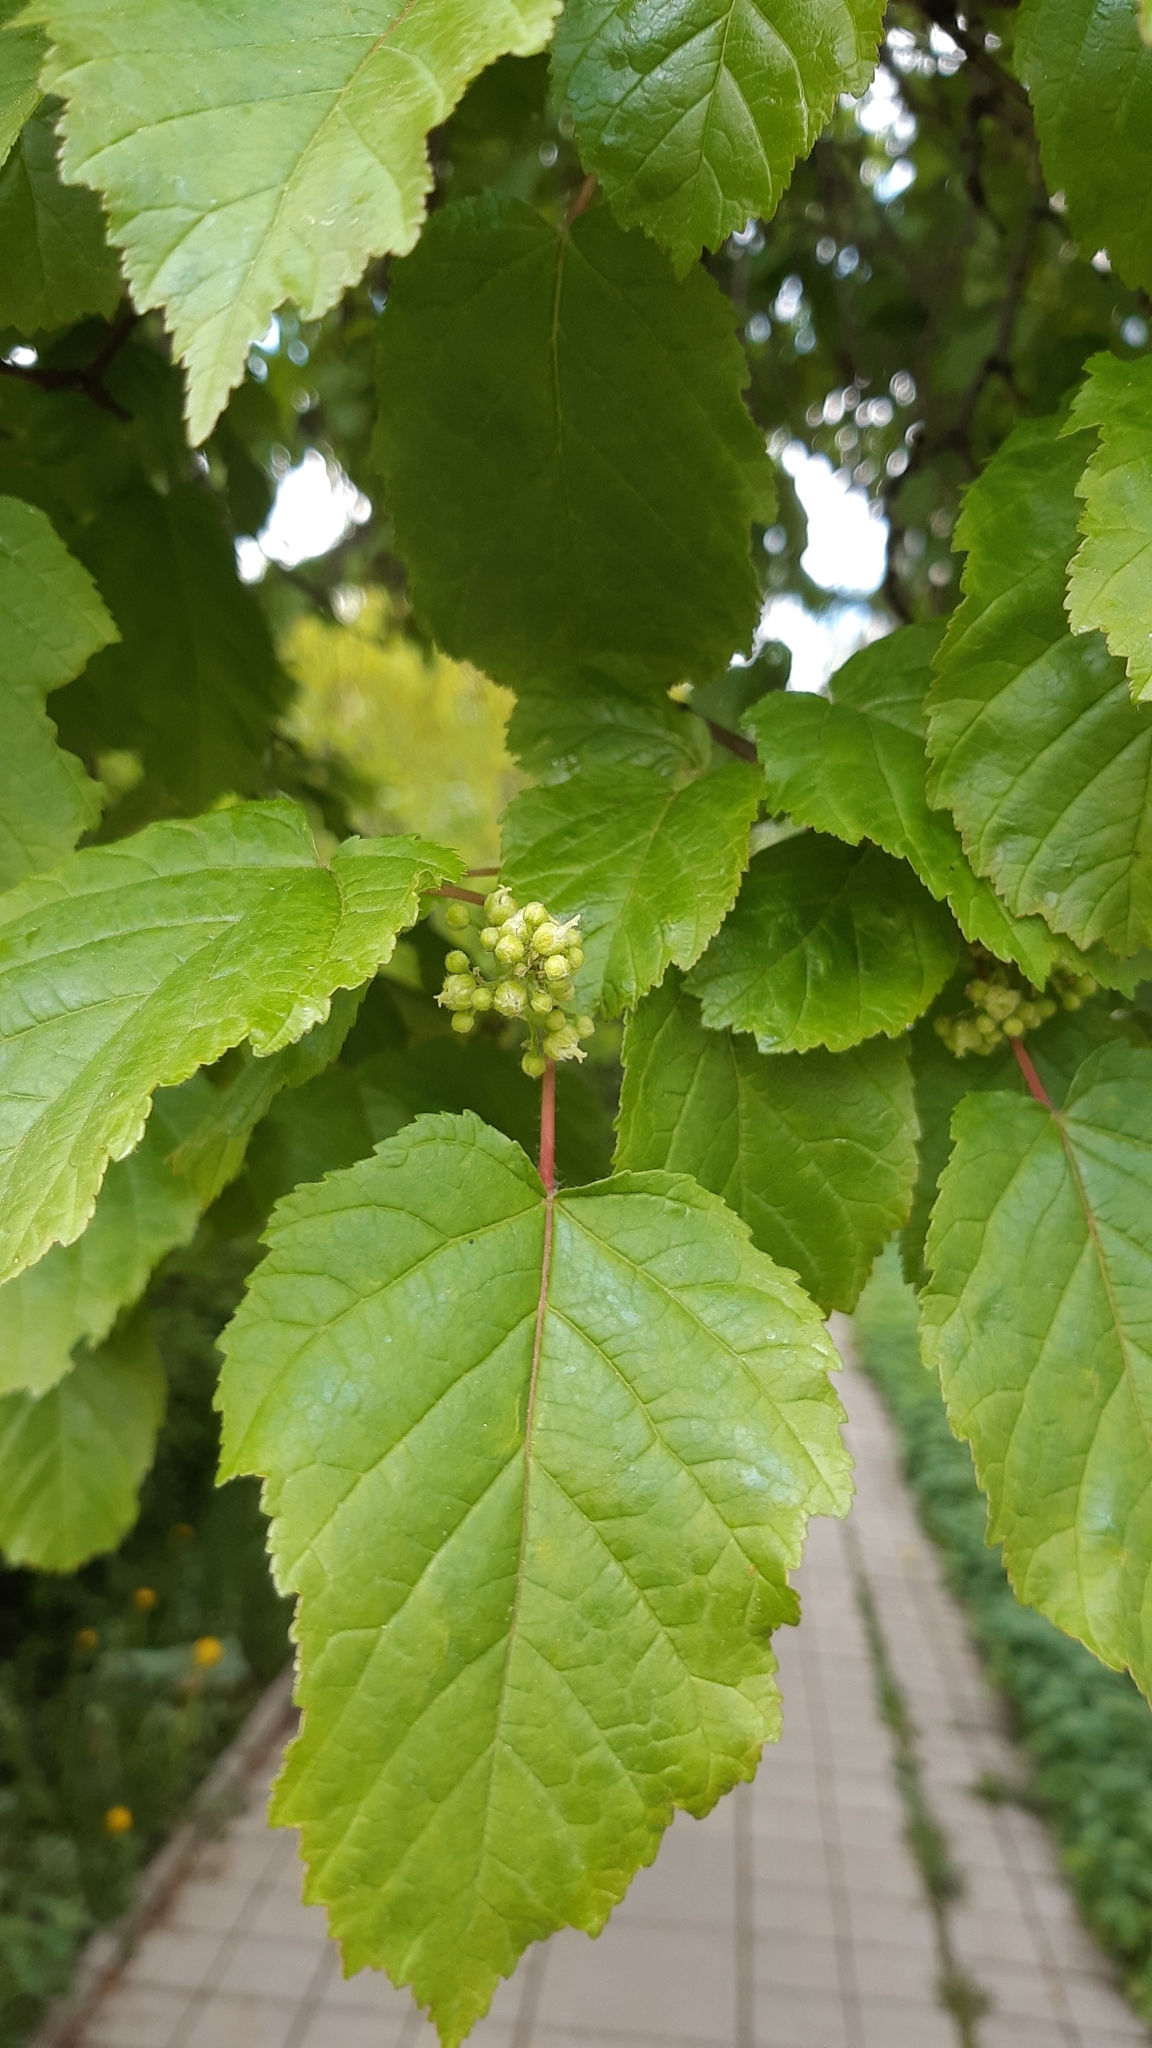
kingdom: Plantae
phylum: Tracheophyta
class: Magnoliopsida
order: Sapindales
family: Sapindaceae
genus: Acer
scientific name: Acer tataricum
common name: Tartar maple
